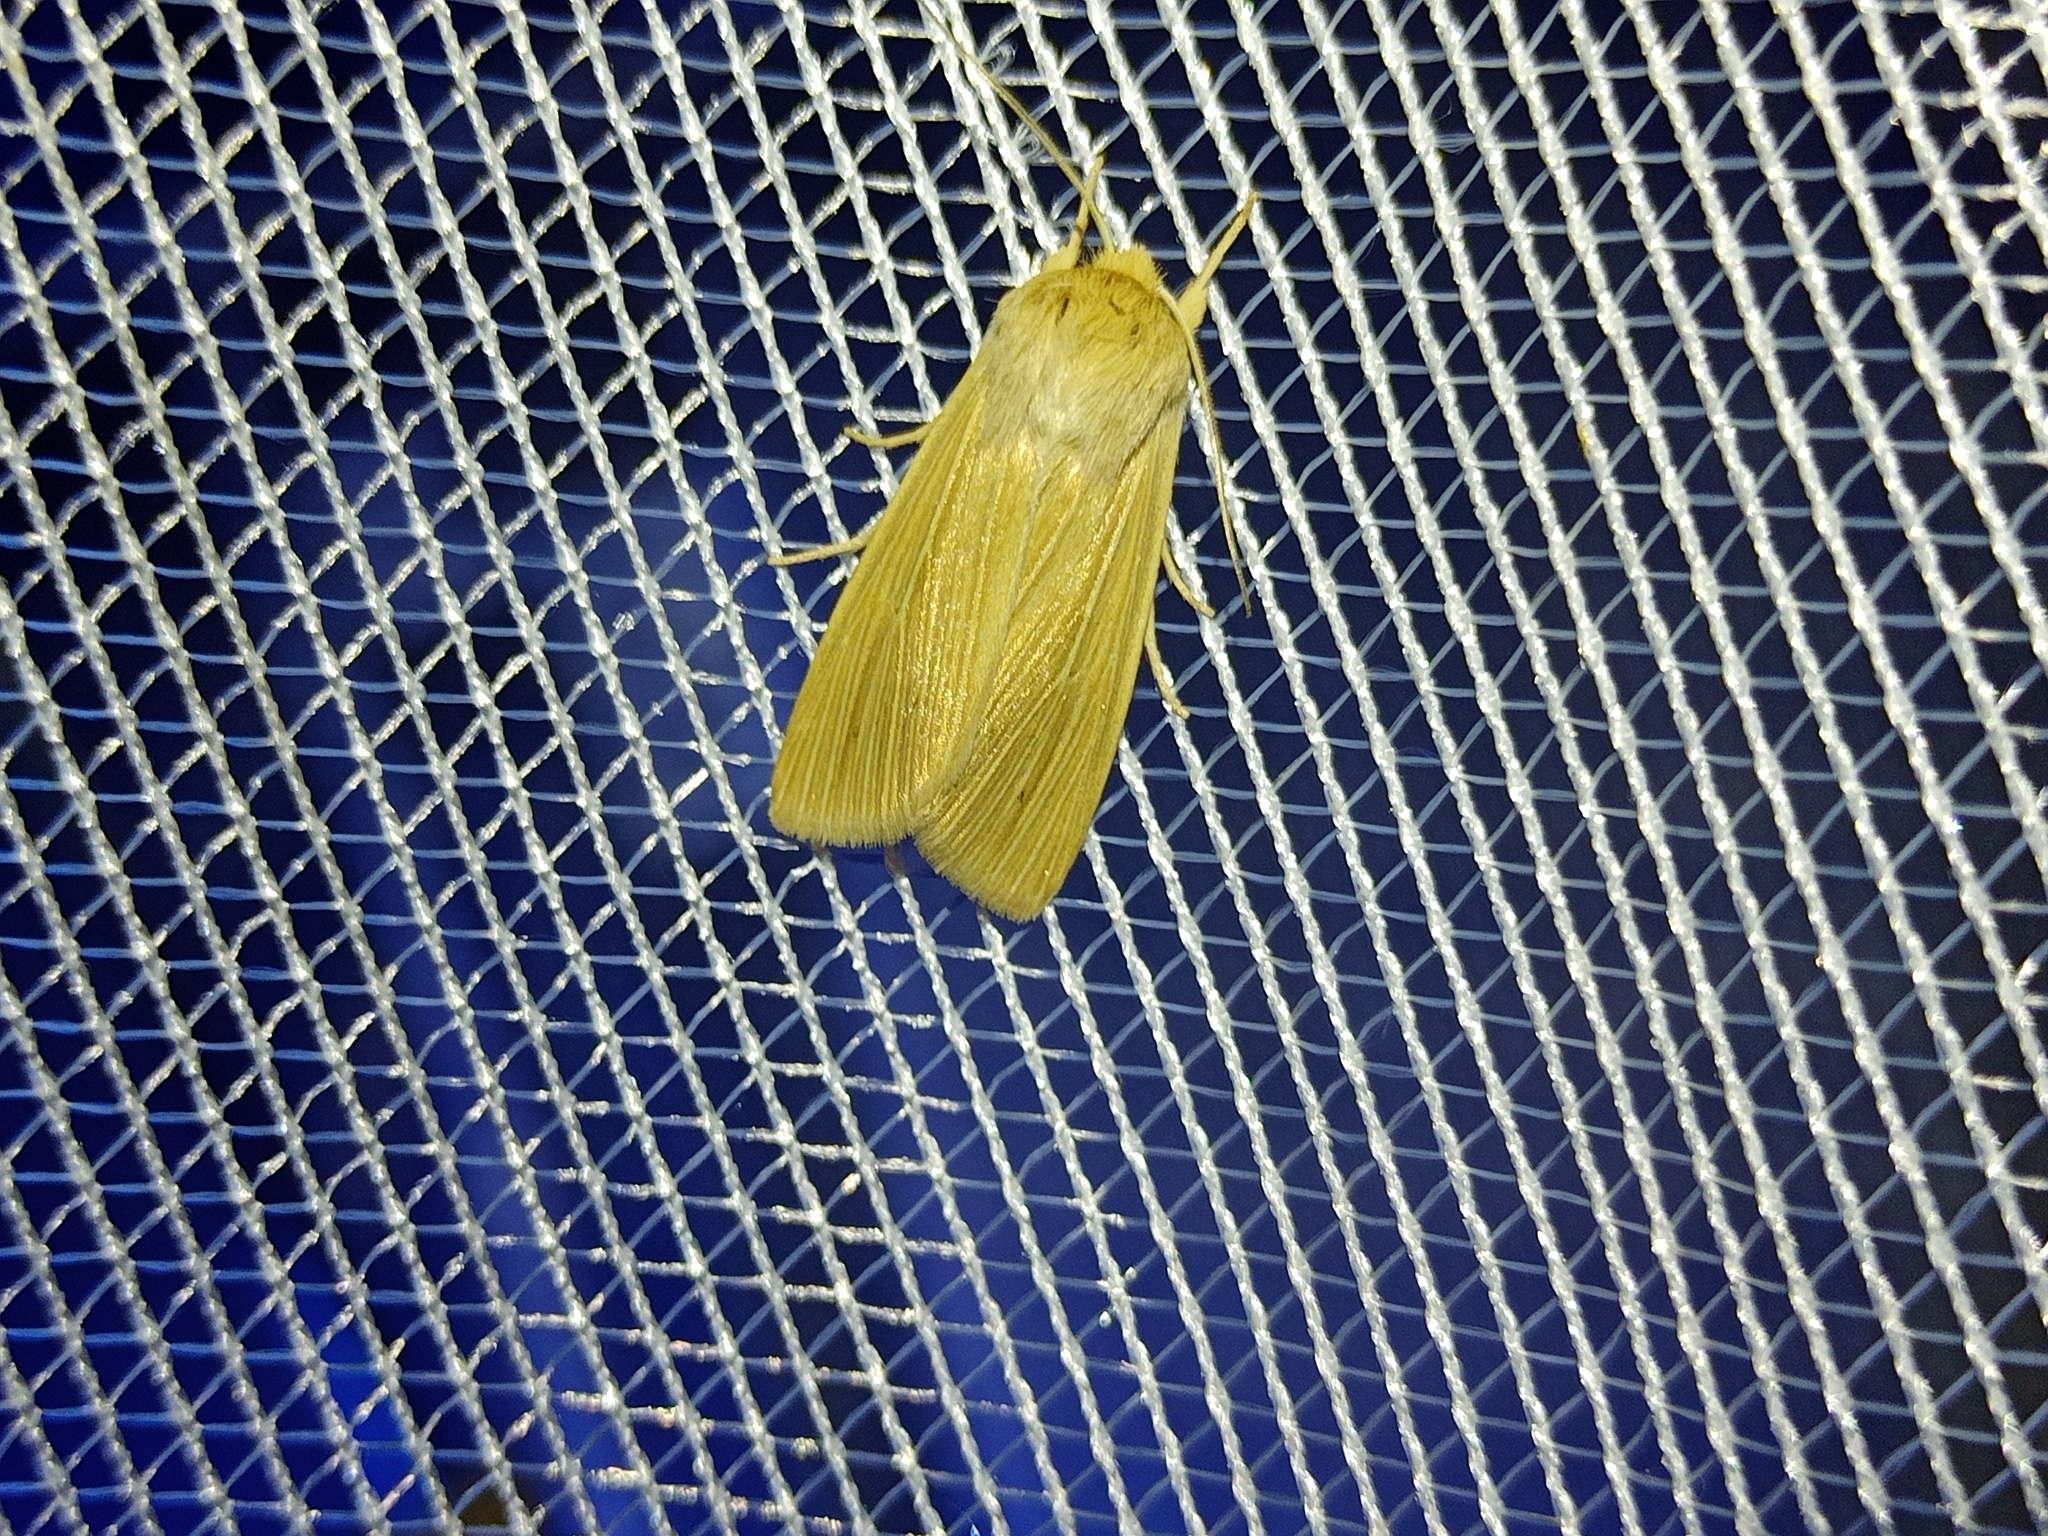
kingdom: Animalia
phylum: Arthropoda
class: Insecta
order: Lepidoptera
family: Noctuidae
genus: Mythimna
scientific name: Mythimna pallens
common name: Common wainscot
